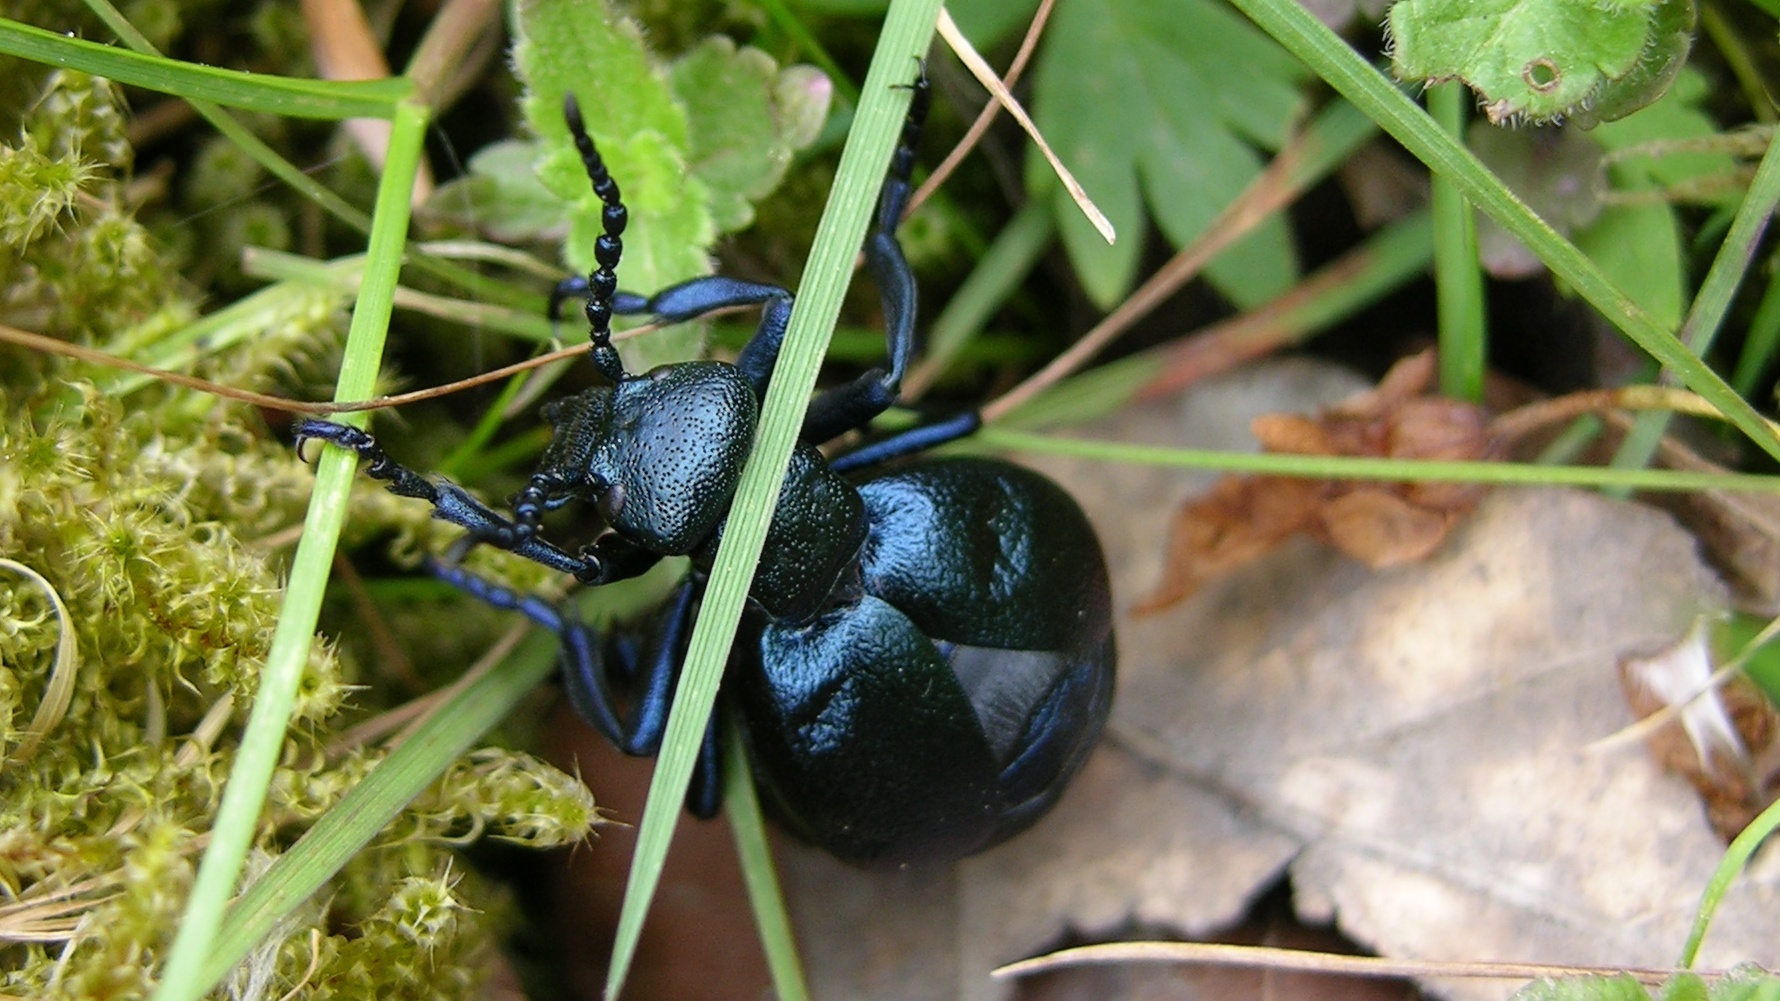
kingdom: Animalia
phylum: Arthropoda
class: Insecta
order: Coleoptera
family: Meloidae
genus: Meloe
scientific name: Meloe violaceus
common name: Violet oil-beetle
